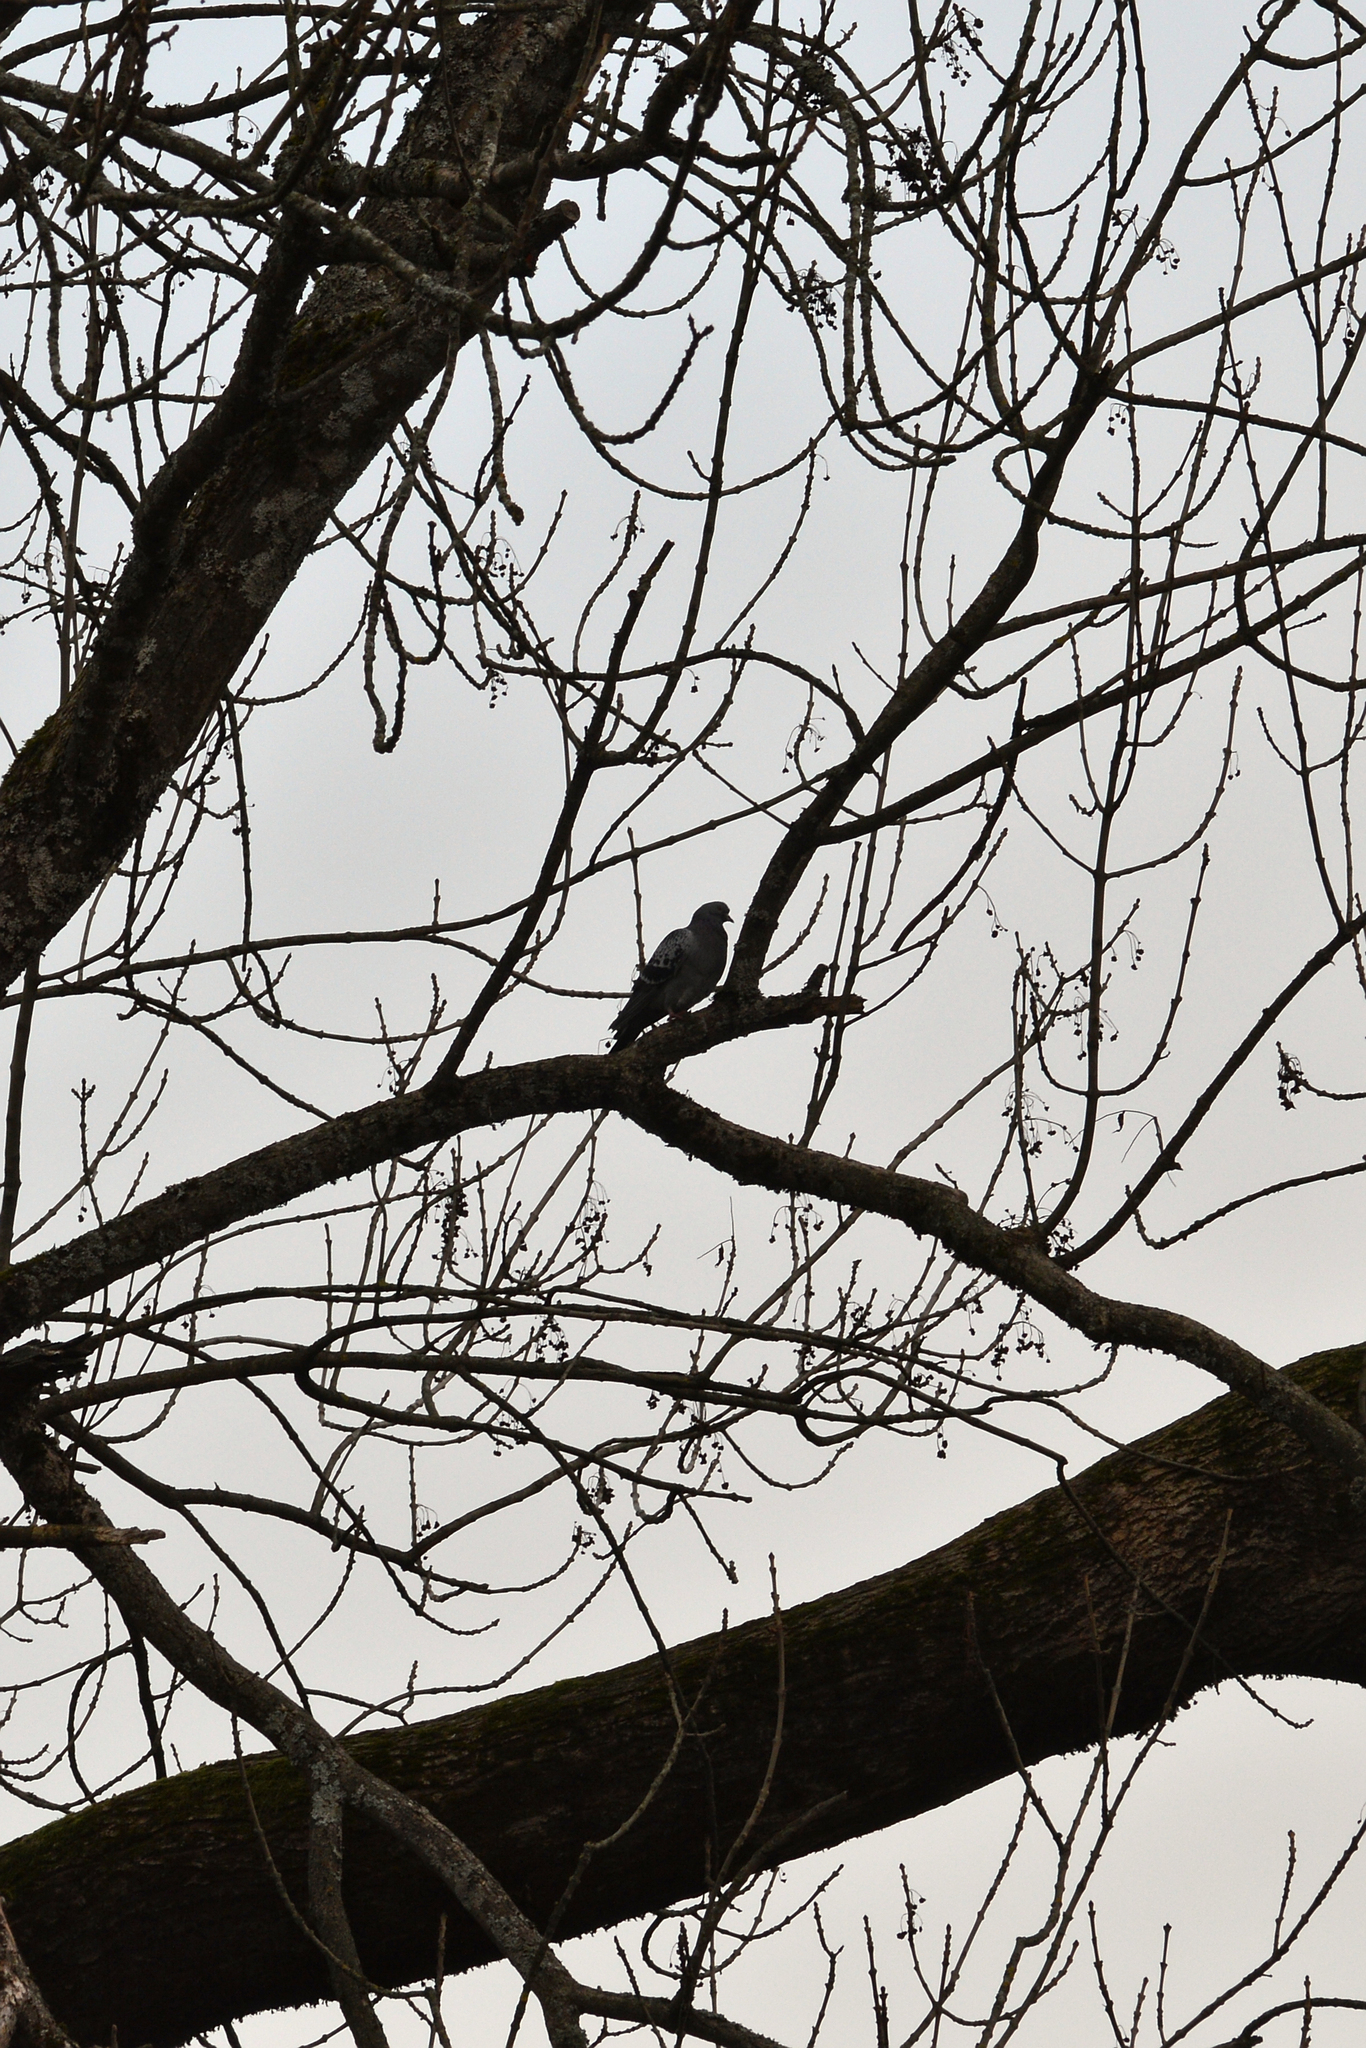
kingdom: Animalia
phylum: Chordata
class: Aves
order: Columbiformes
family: Columbidae
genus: Columba
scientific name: Columba livia
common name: Rock pigeon
